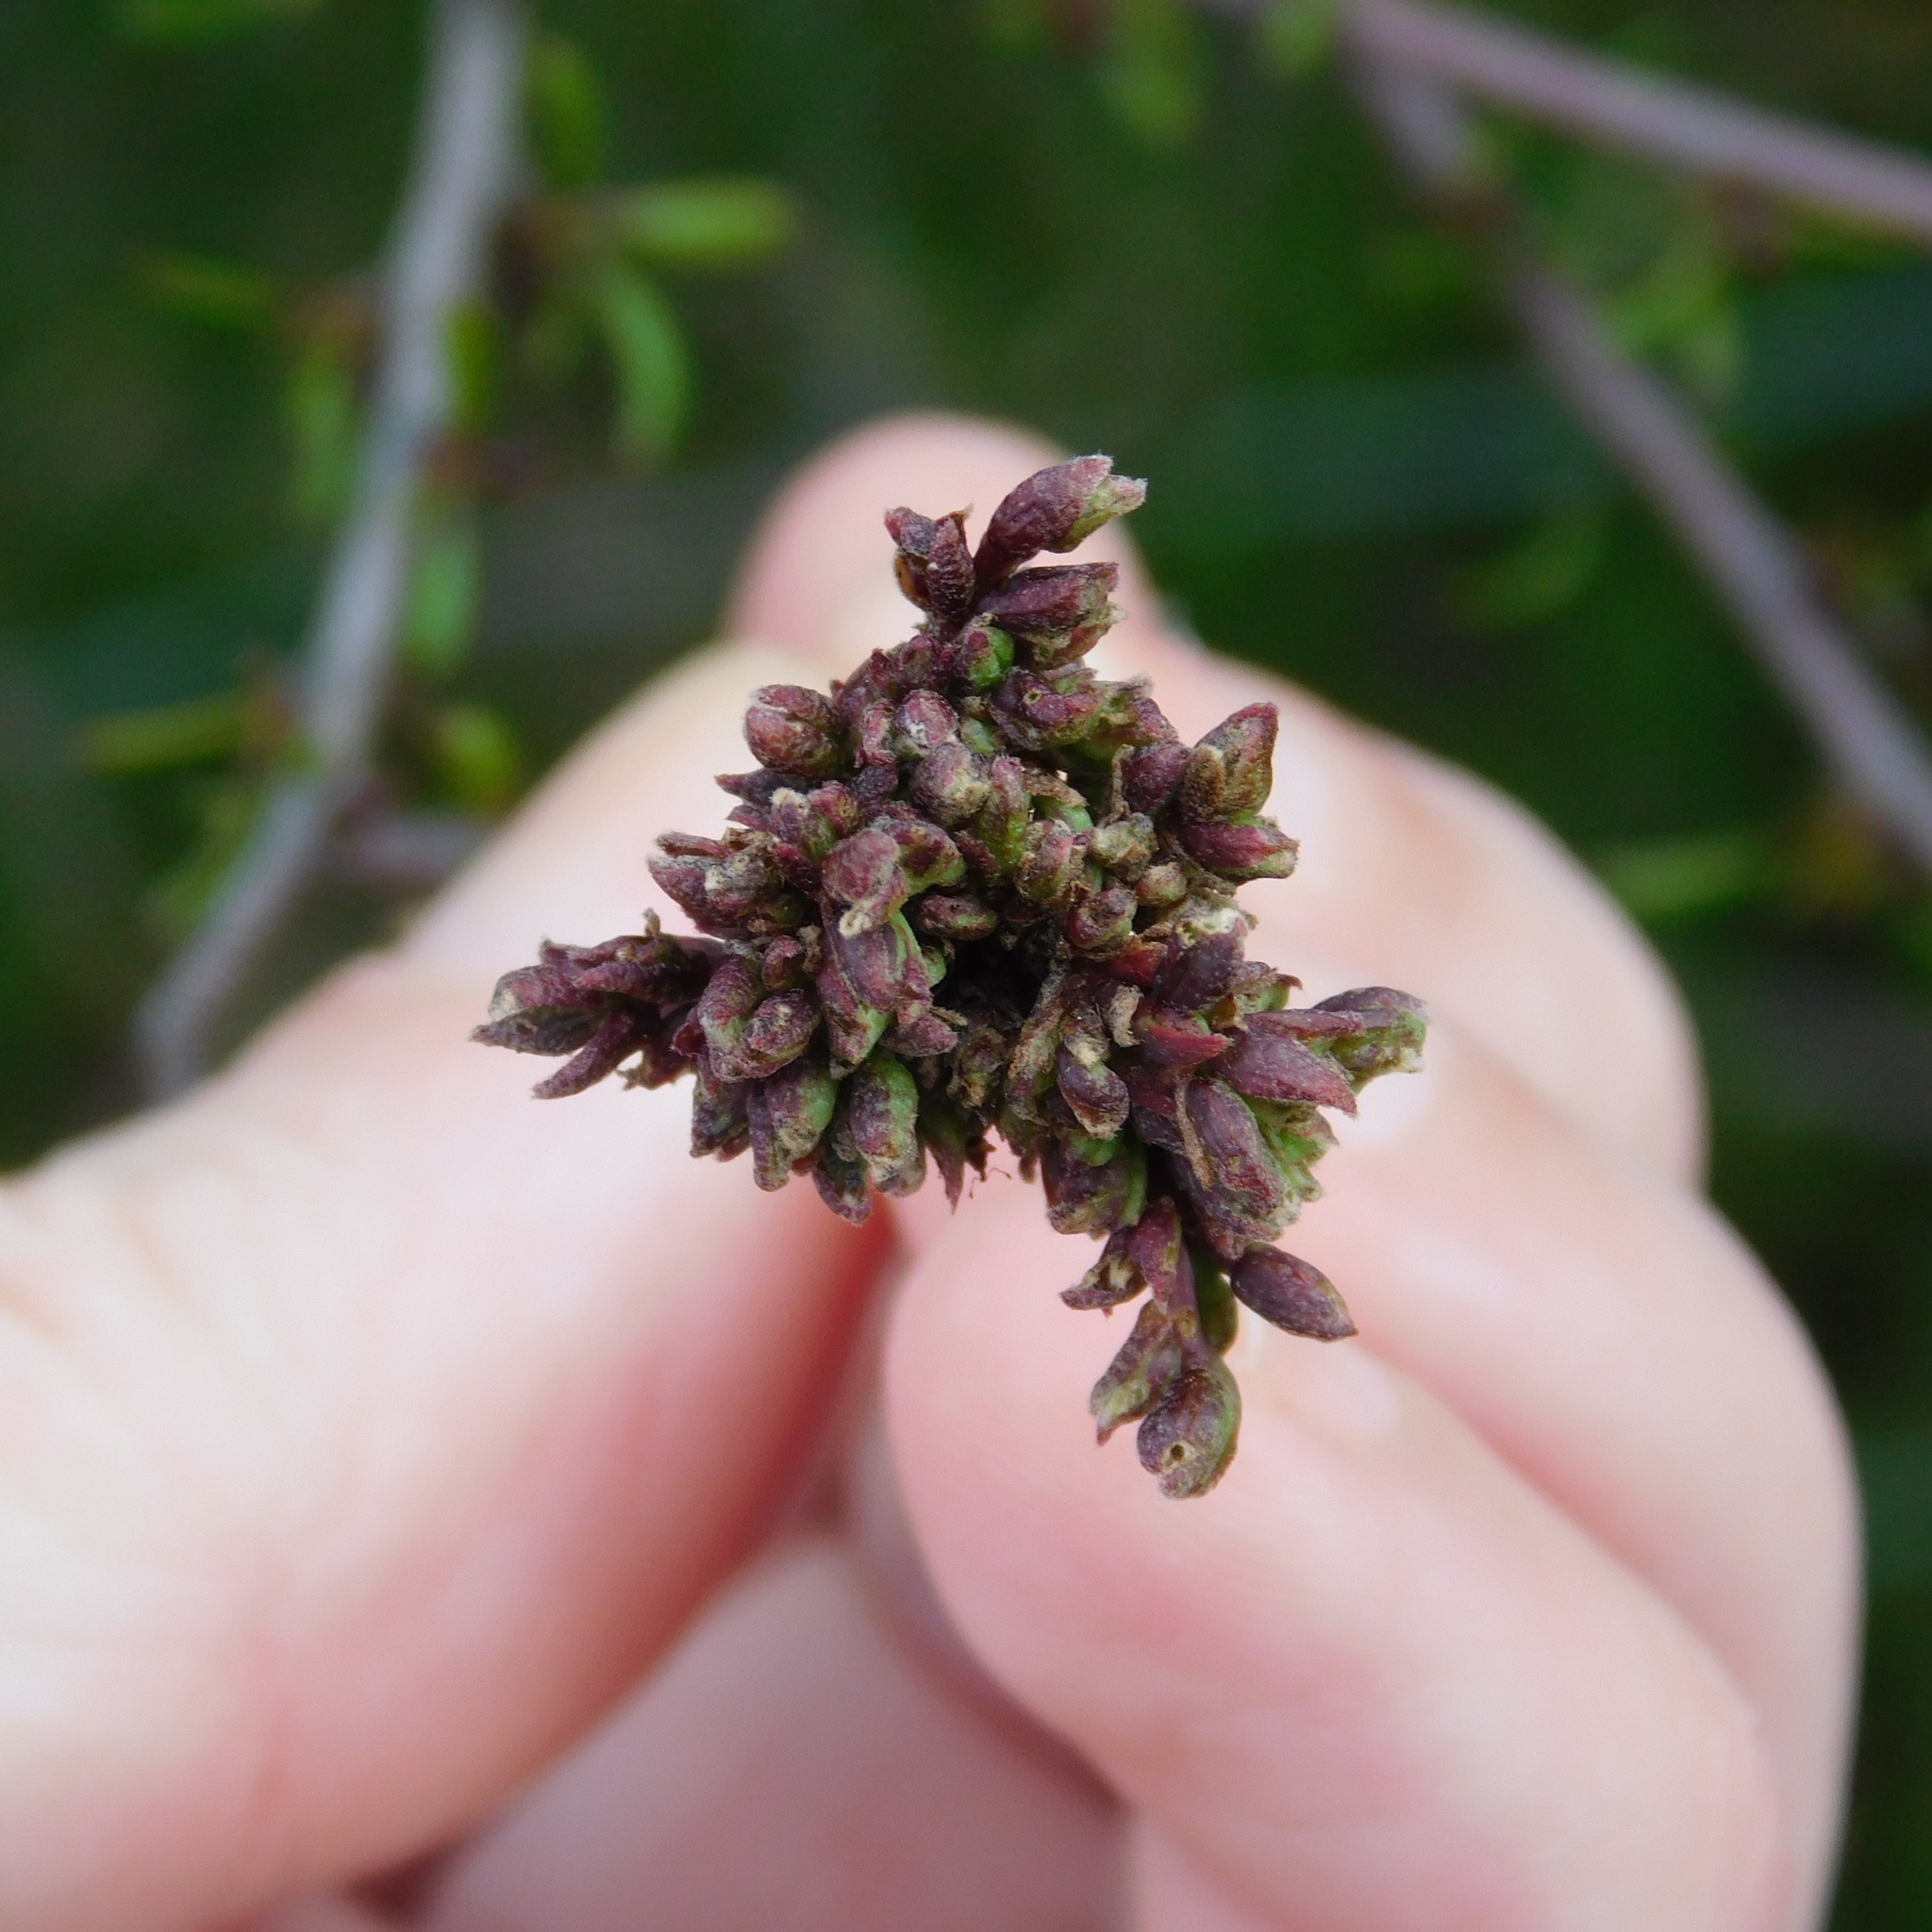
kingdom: Animalia
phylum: Arthropoda
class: Arachnida
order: Trombidiformes
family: Eriophyidae
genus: Eriophyes
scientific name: Eriophyes plaginus
